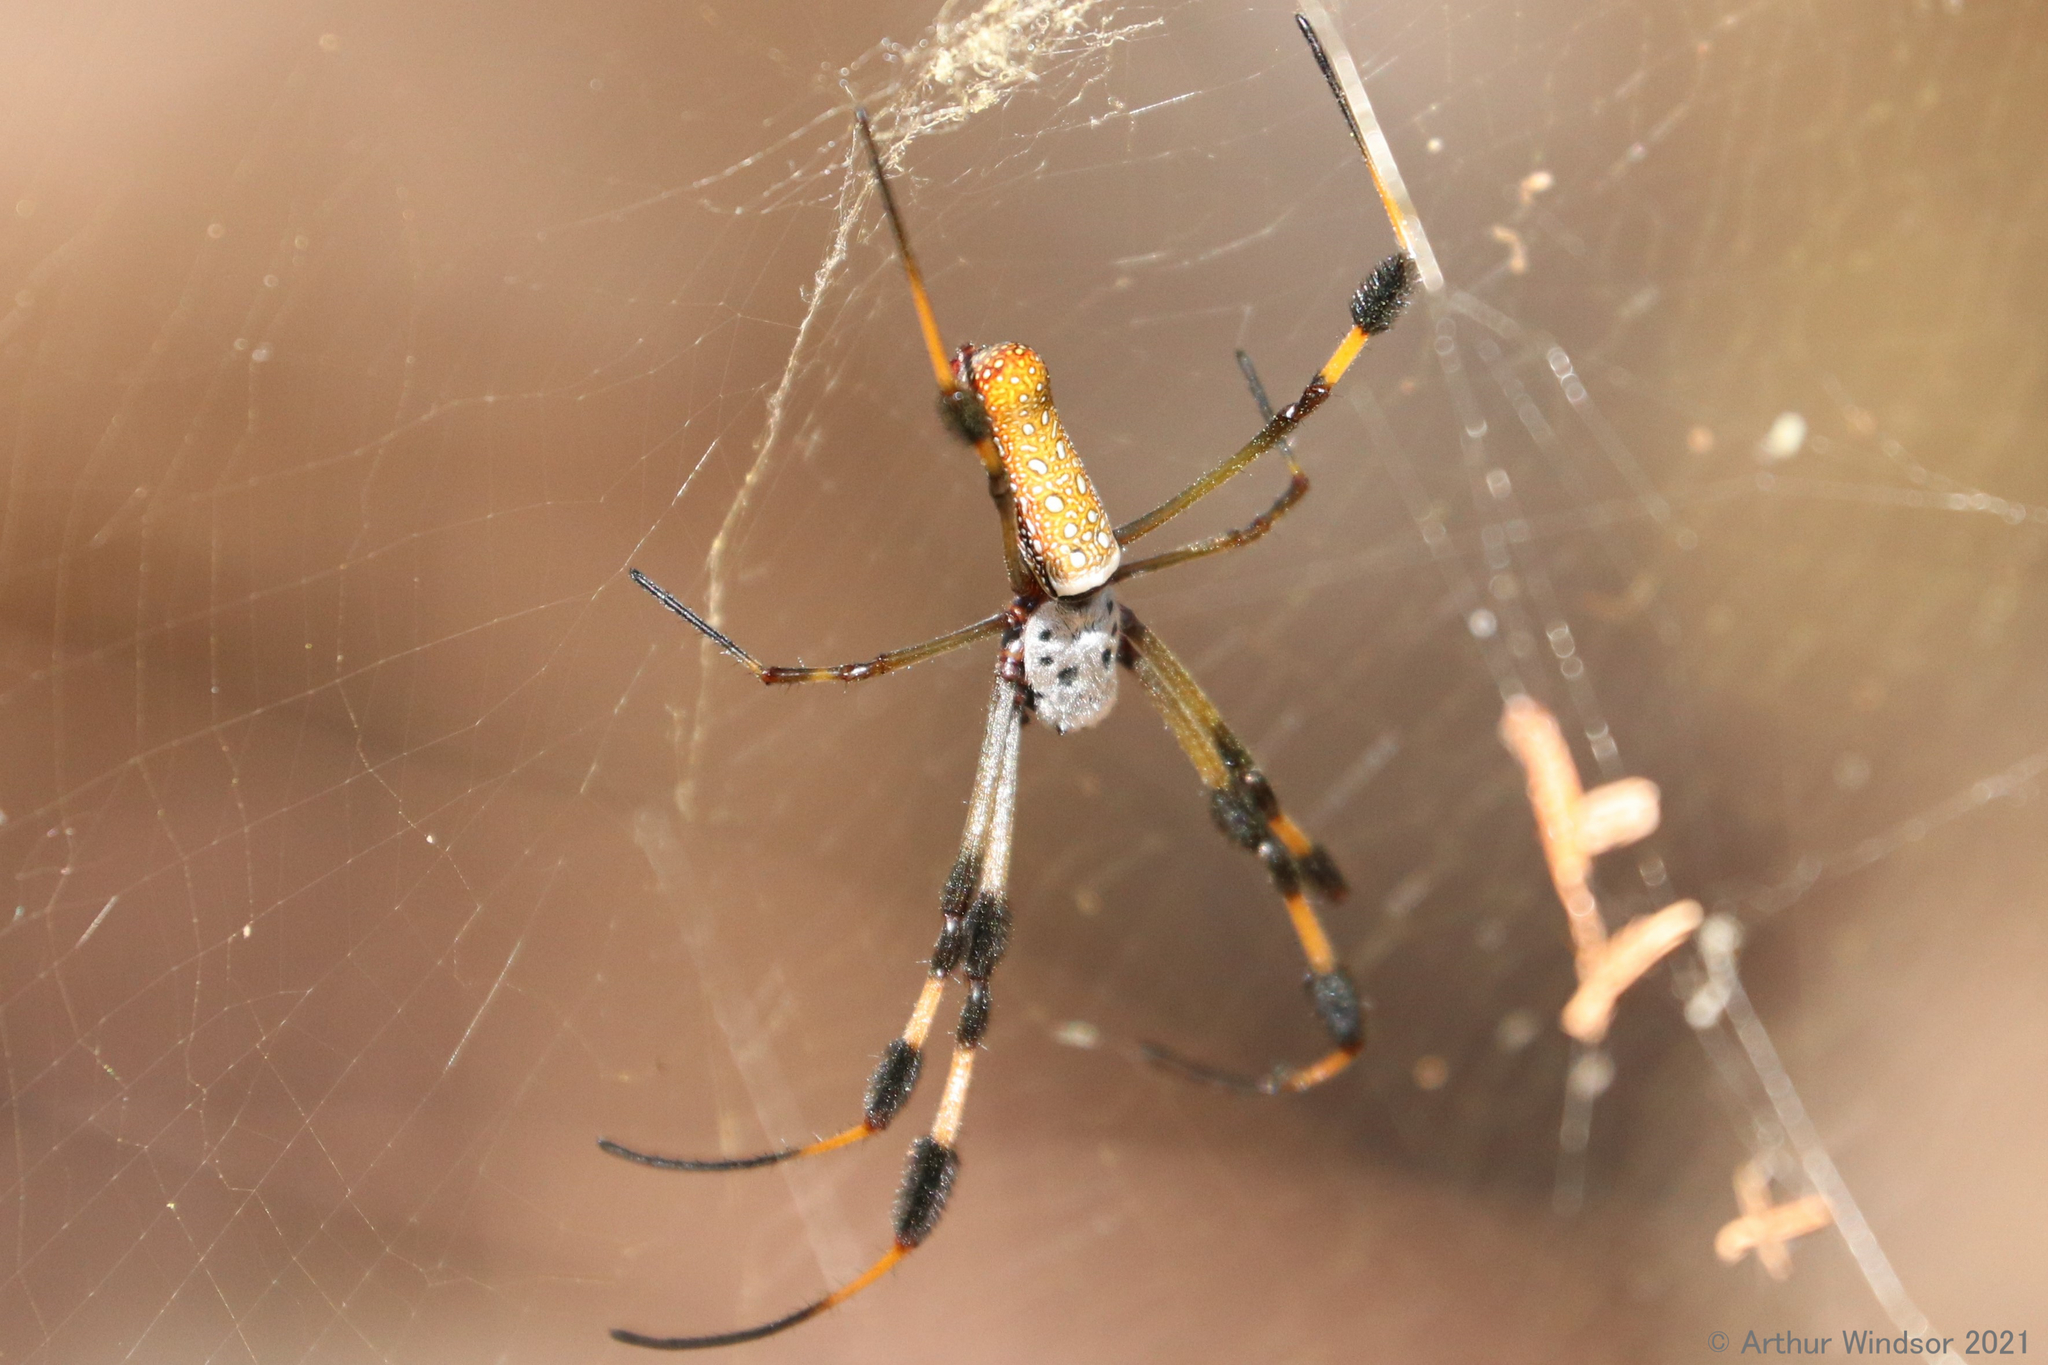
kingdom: Animalia
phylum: Arthropoda
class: Arachnida
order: Araneae
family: Araneidae
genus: Trichonephila
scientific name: Trichonephila clavipes
